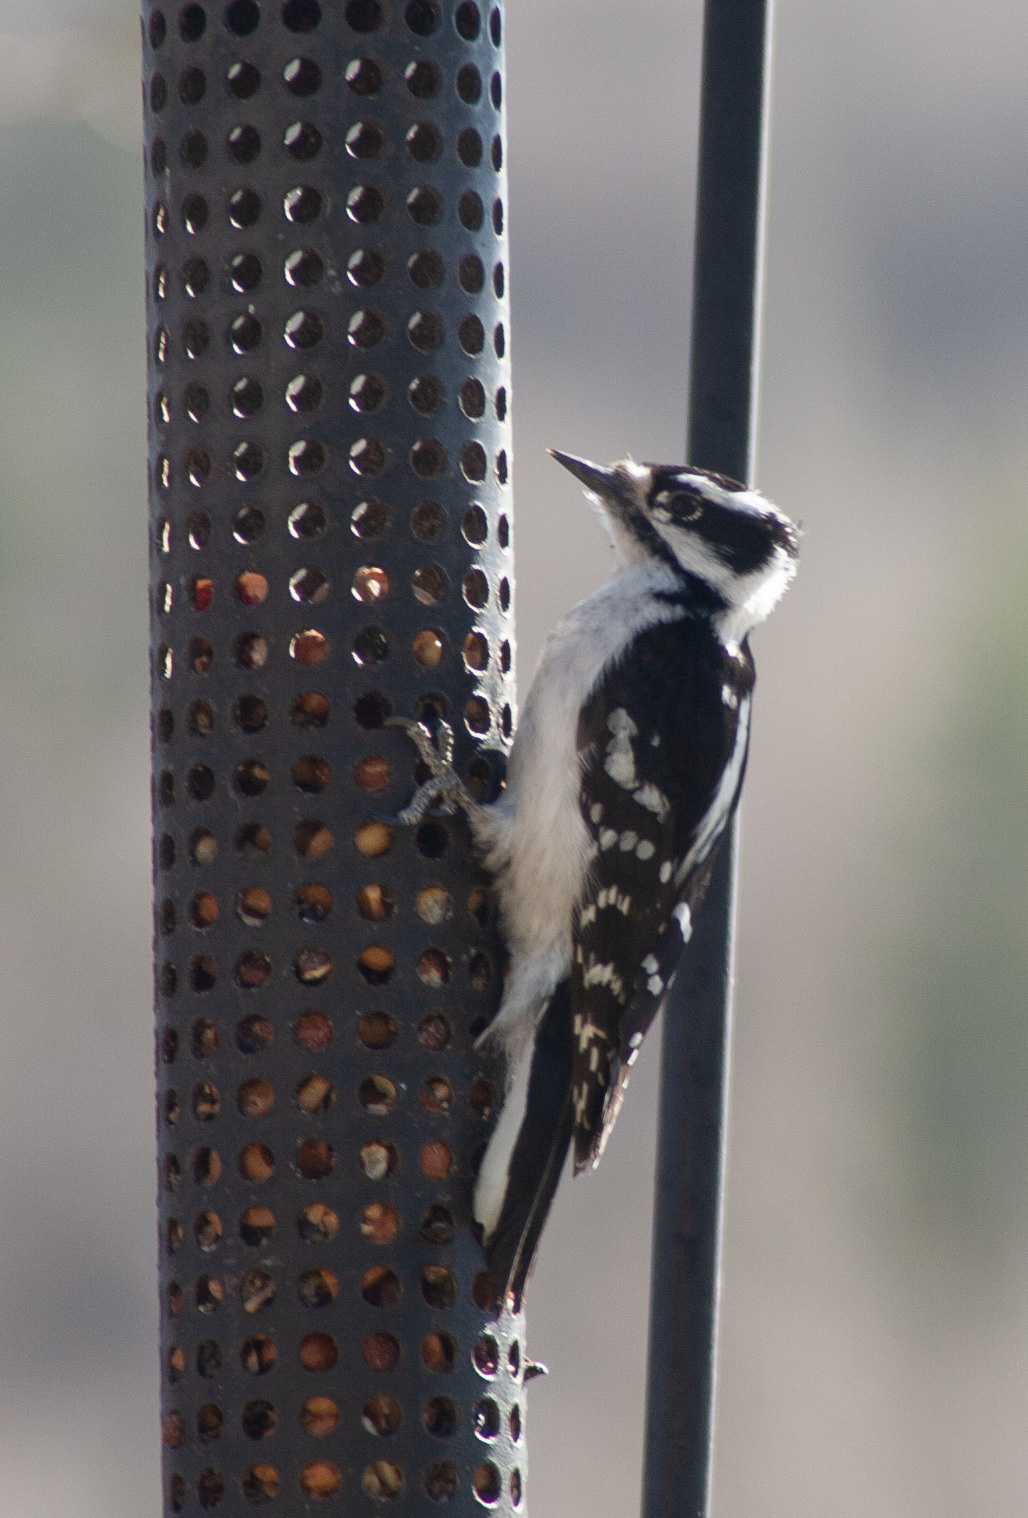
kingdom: Animalia
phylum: Chordata
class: Aves
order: Piciformes
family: Picidae
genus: Dryobates
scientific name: Dryobates pubescens
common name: Downy woodpecker
